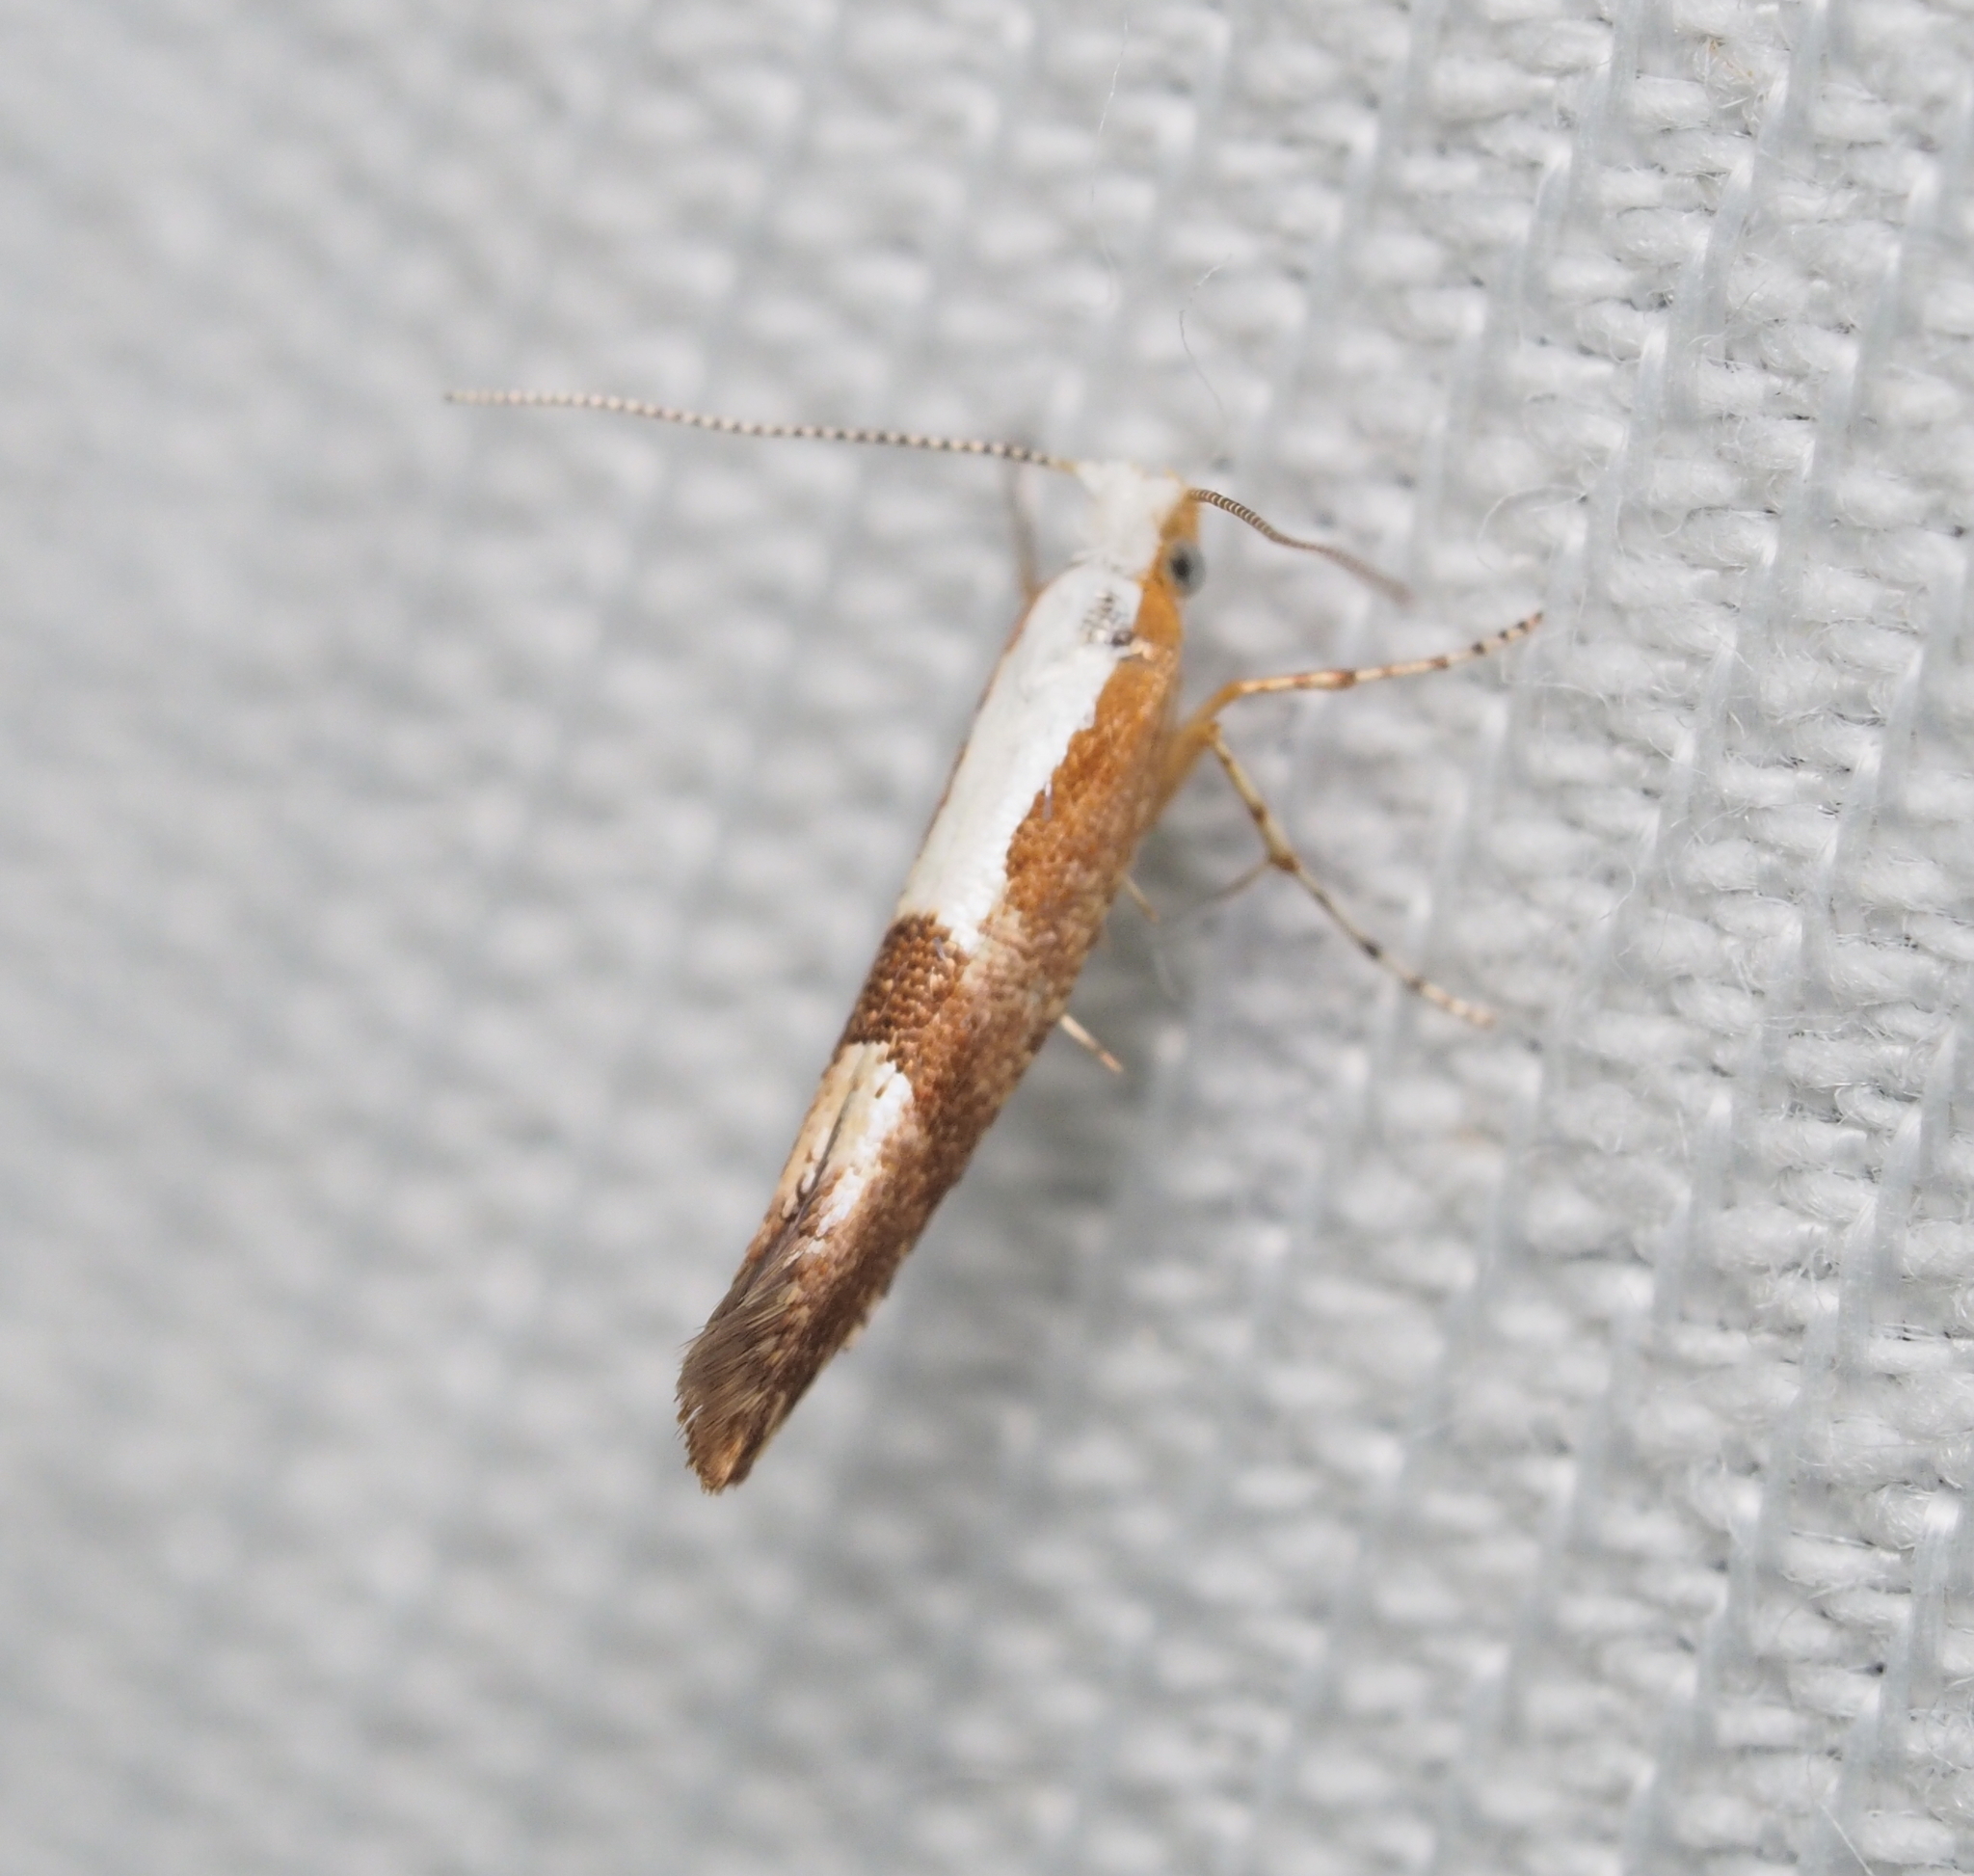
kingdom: Animalia
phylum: Arthropoda
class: Insecta
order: Lepidoptera
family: Argyresthiidae
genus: Argyresthia
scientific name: Argyresthia pruniella
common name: Cherry fruit moth
